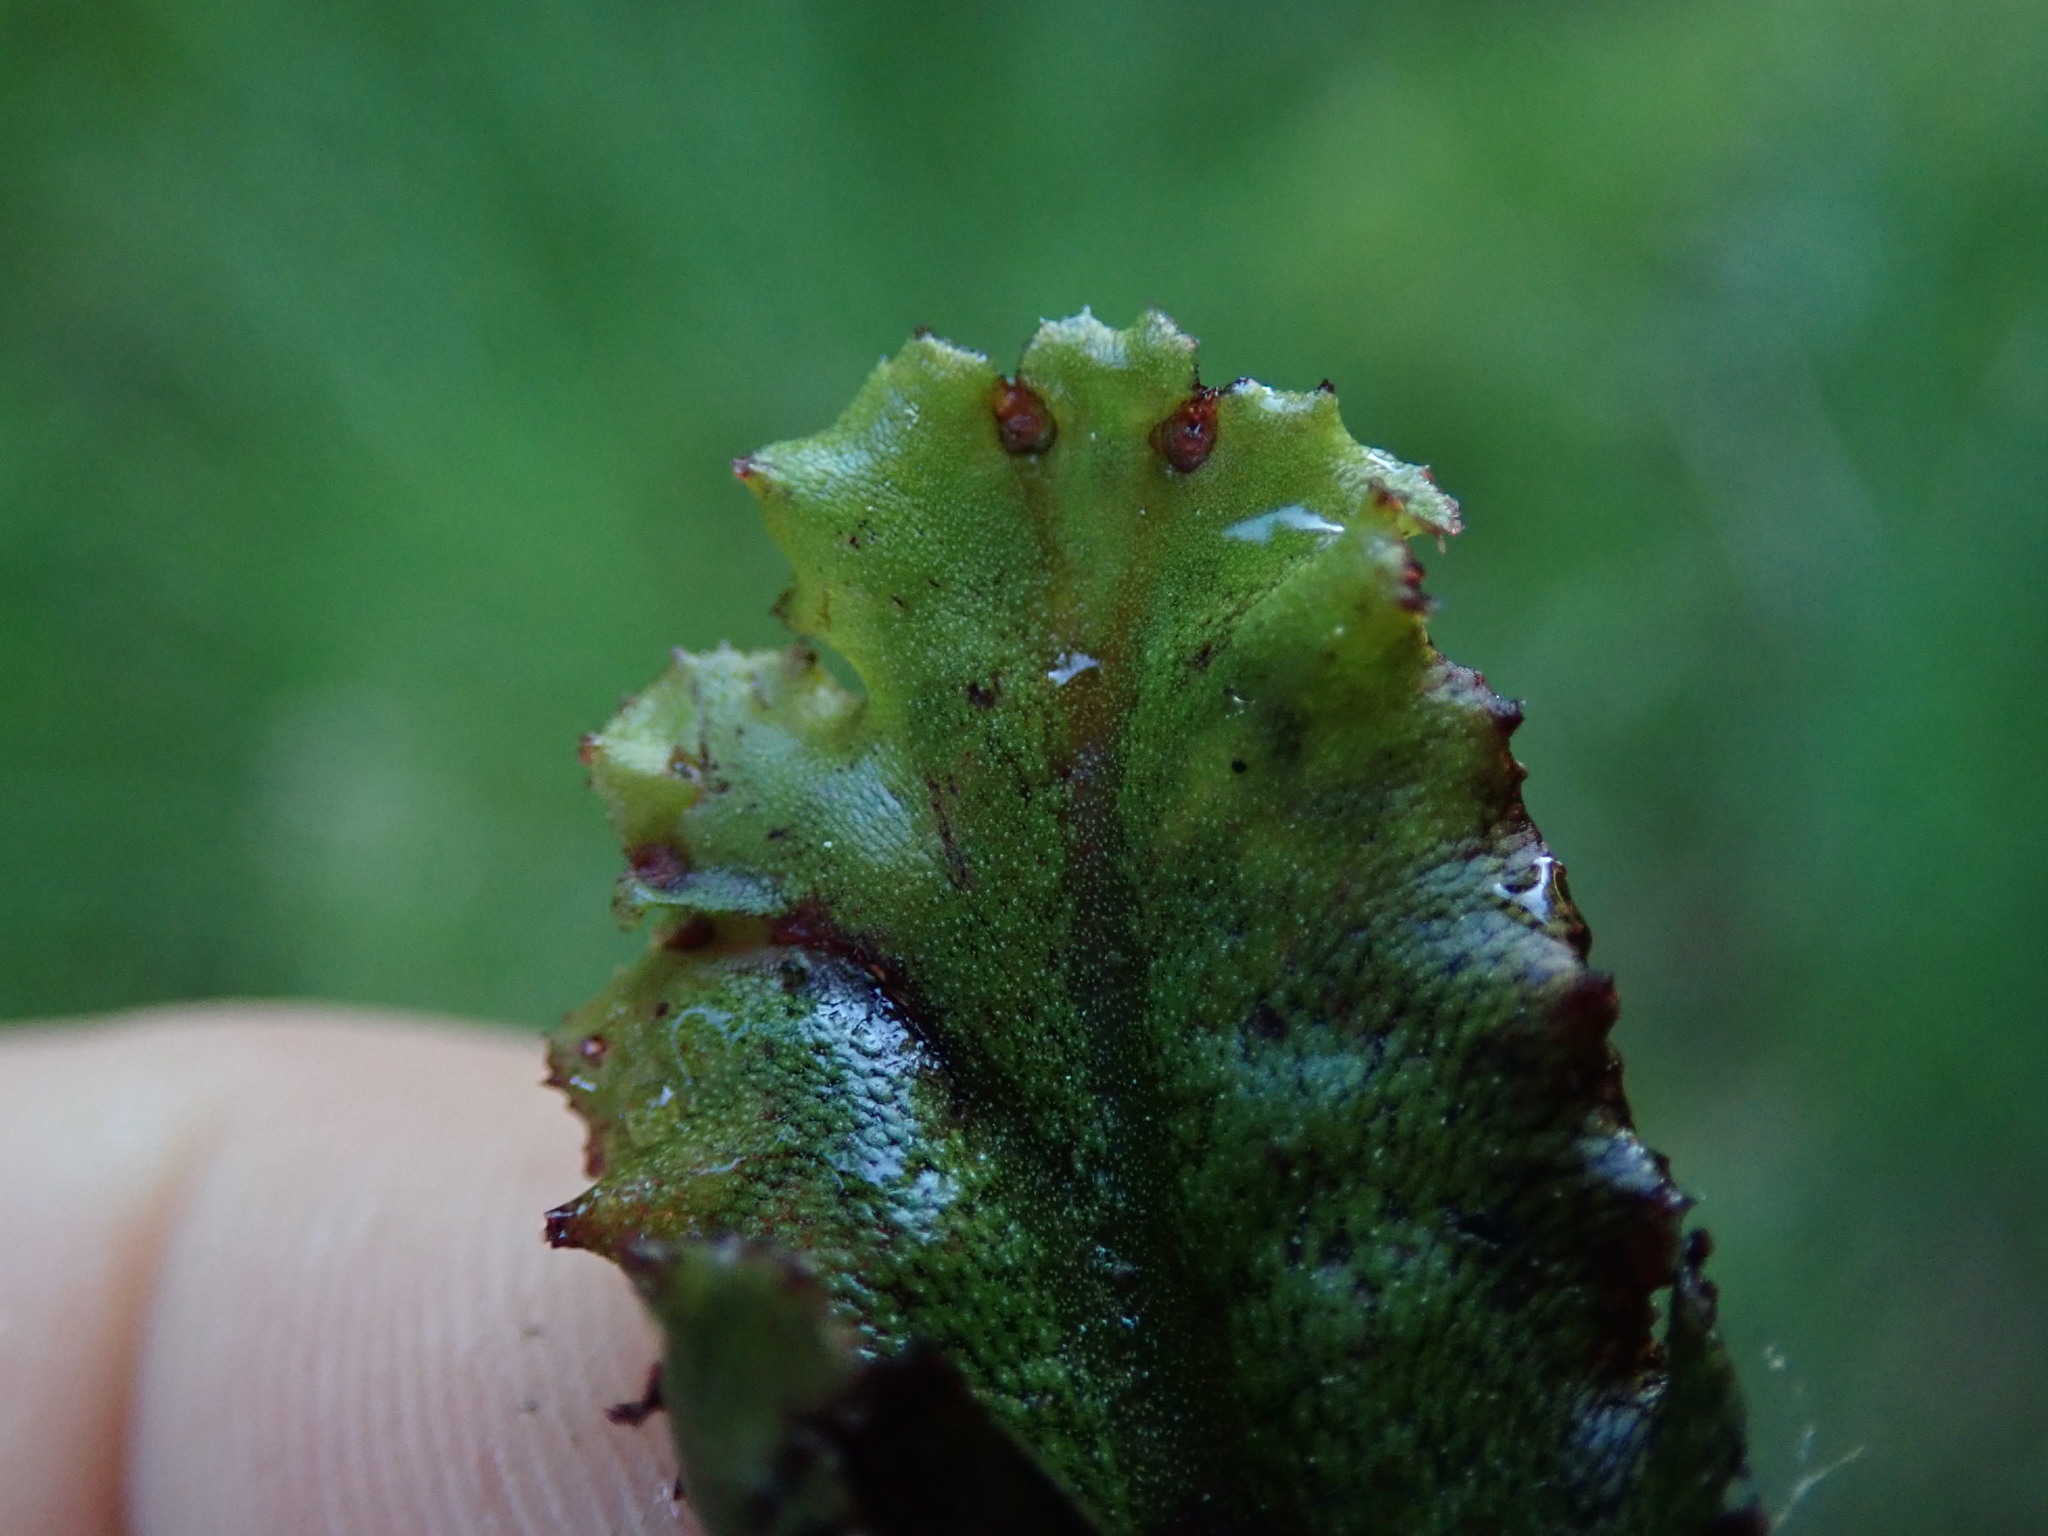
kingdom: Plantae
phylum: Marchantiophyta
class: Marchantiopsida
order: Marchantiales
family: Marchantiaceae
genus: Marchantia
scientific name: Marchantia polymorpha
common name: Common liverwort
